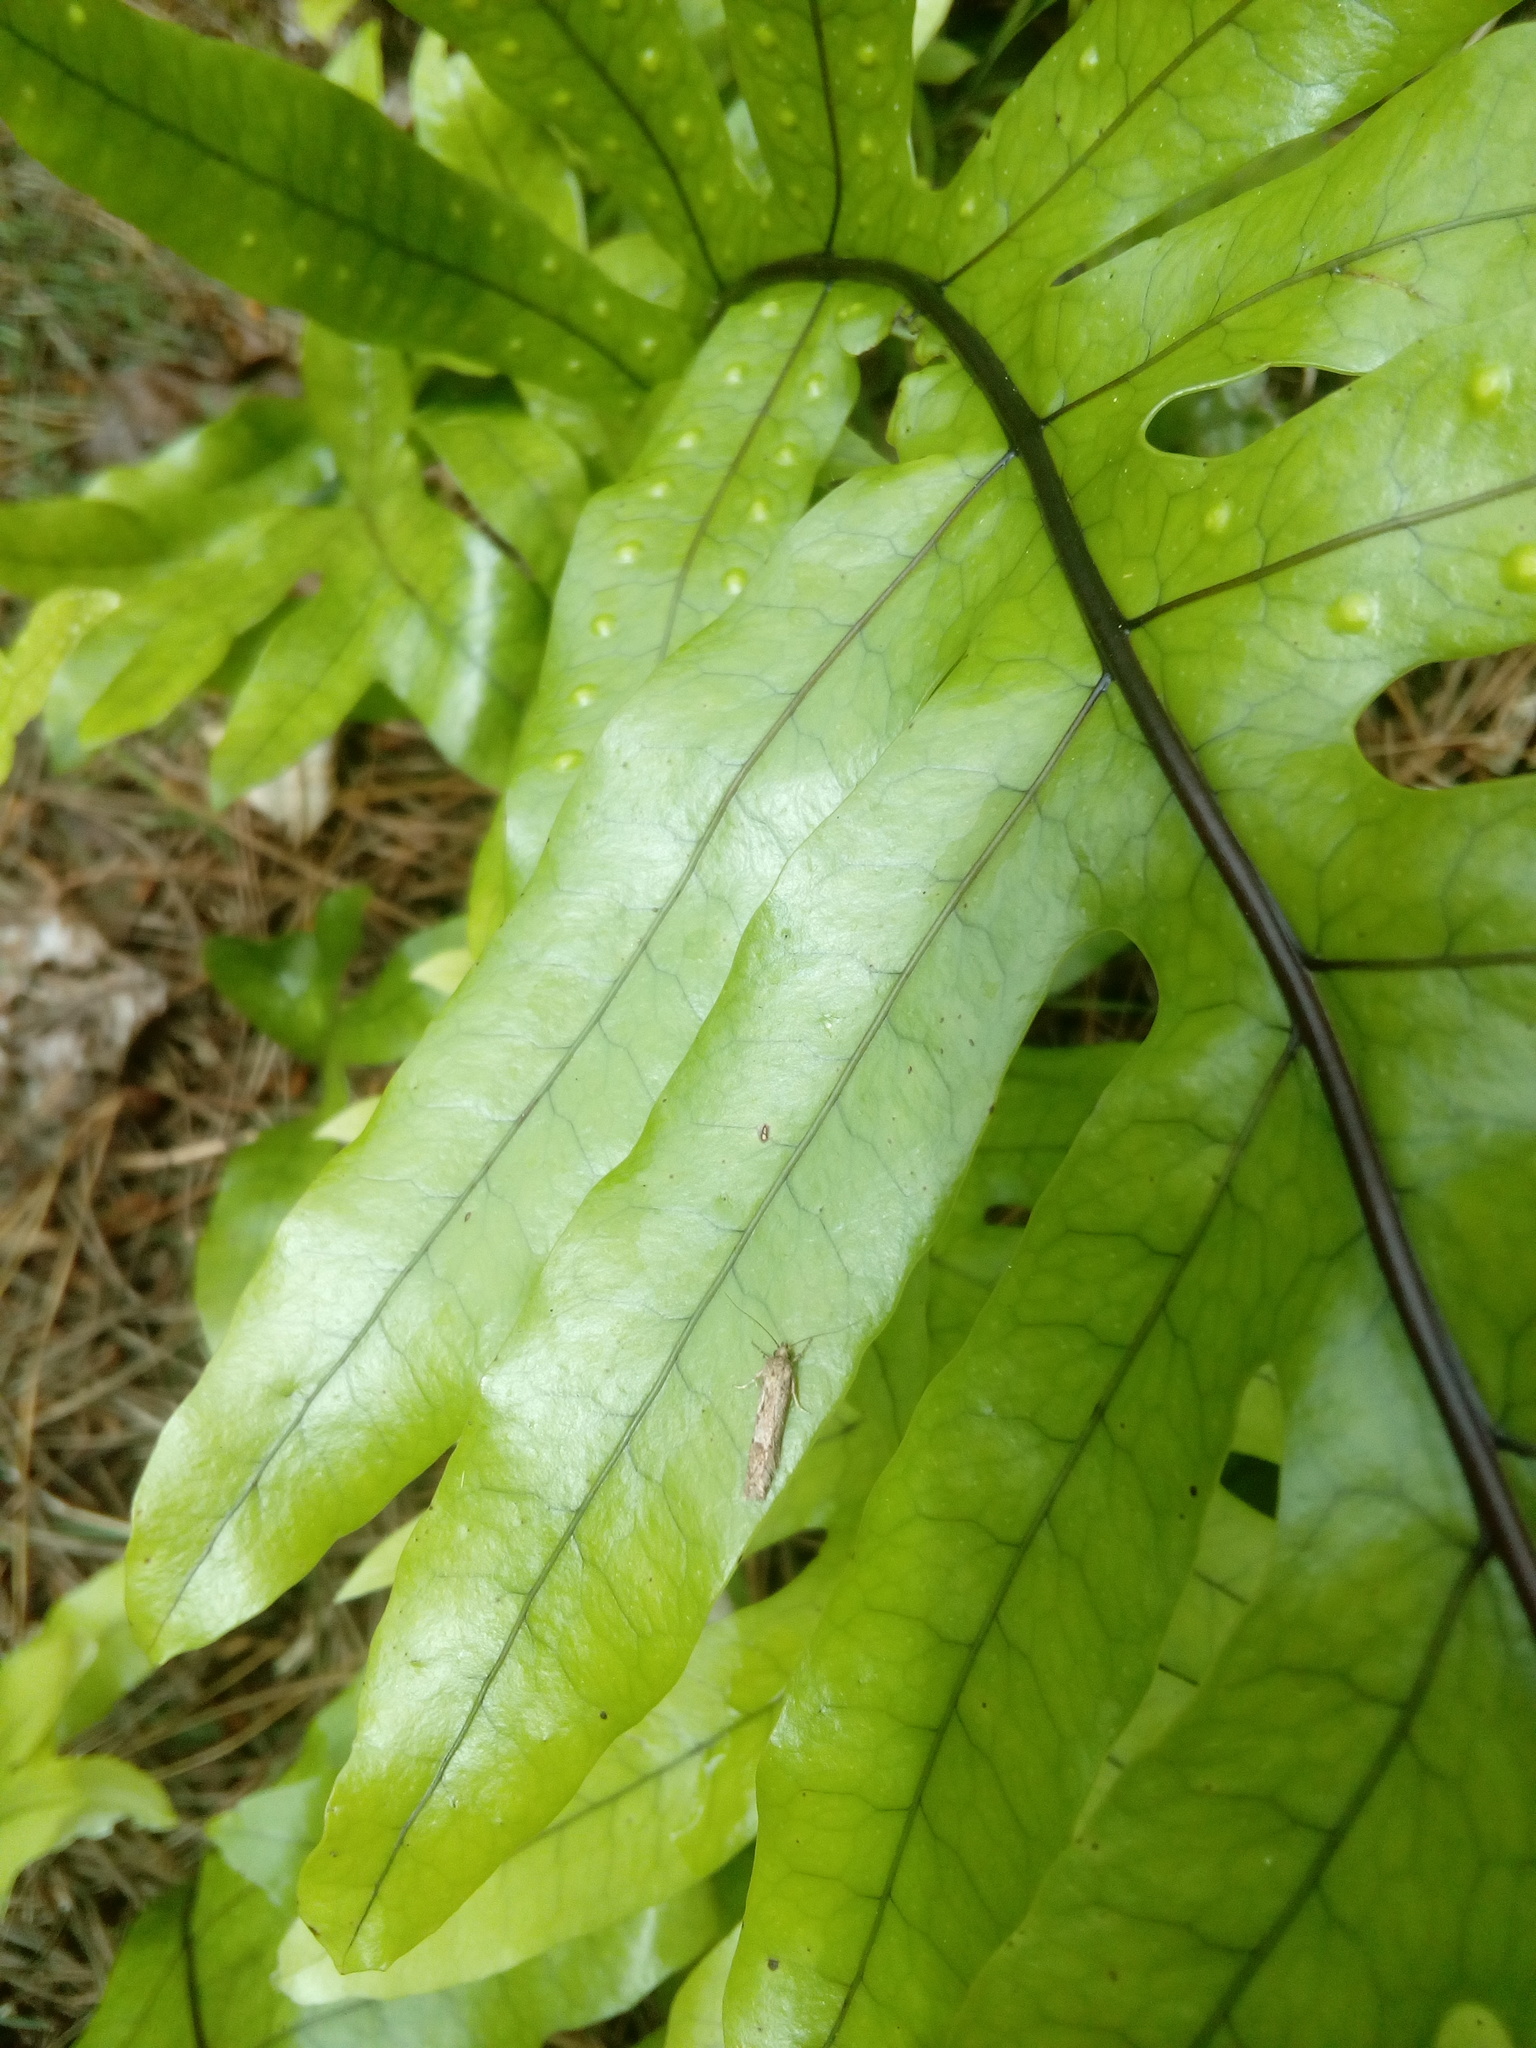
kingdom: Animalia
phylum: Arthropoda
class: Insecta
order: Lepidoptera
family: Oecophoridae
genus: Chersadaula
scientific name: Chersadaula ochrogastra
